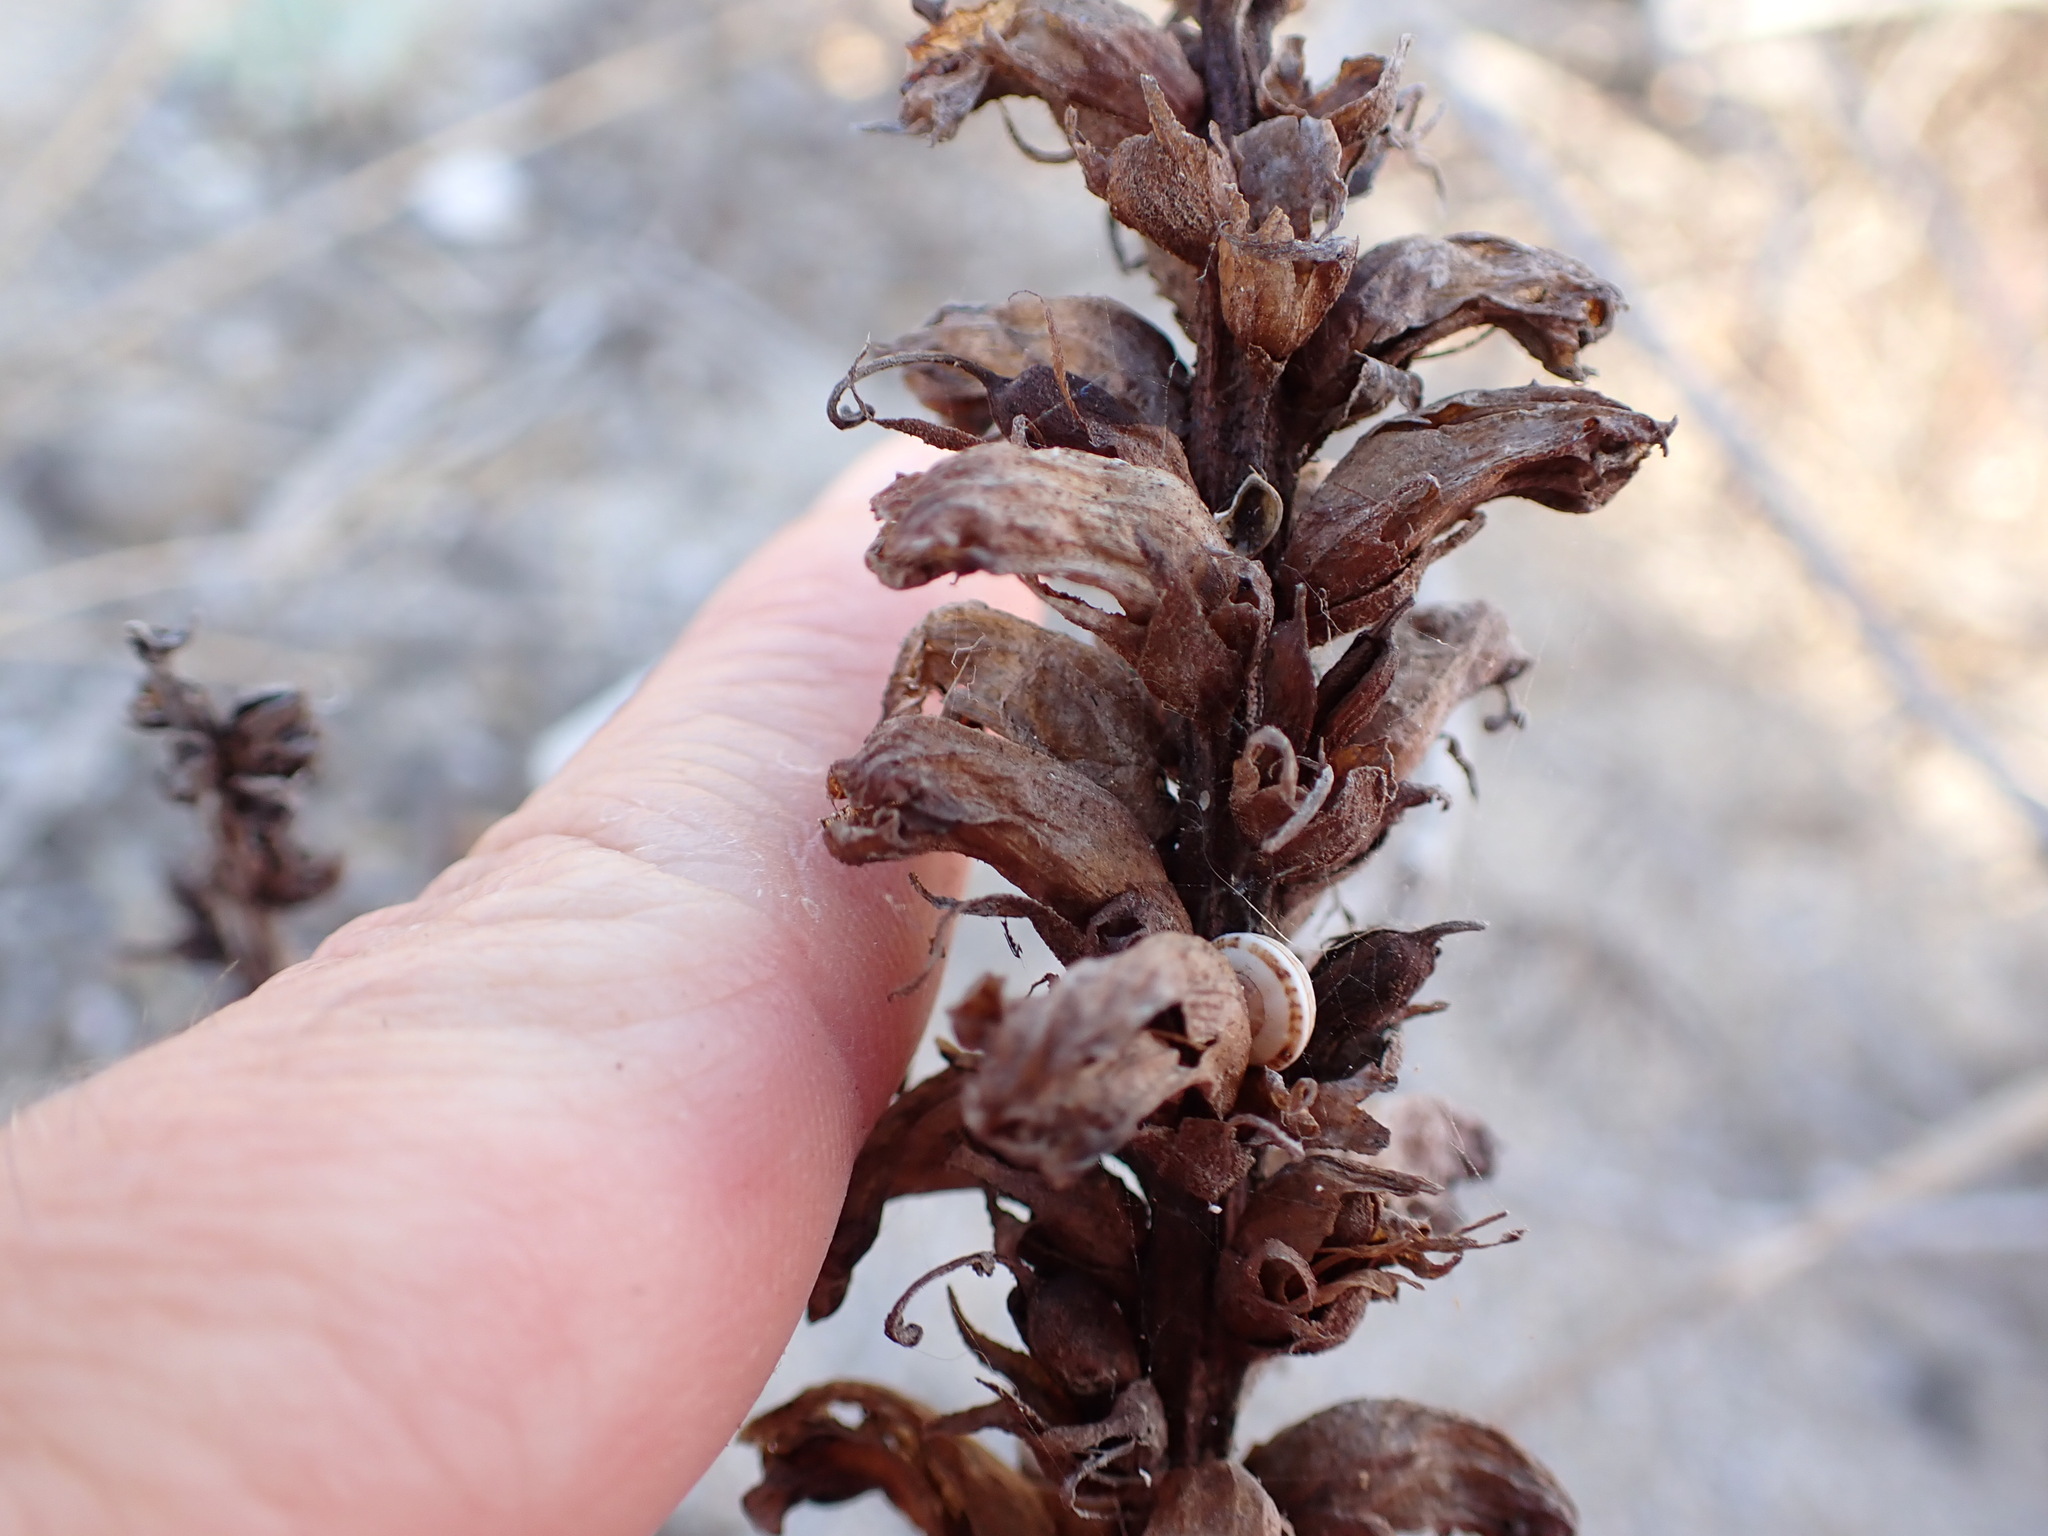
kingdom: Plantae
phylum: Tracheophyta
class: Magnoliopsida
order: Lamiales
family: Orobanchaceae
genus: Orobanche
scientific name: Orobanche sanguinea
